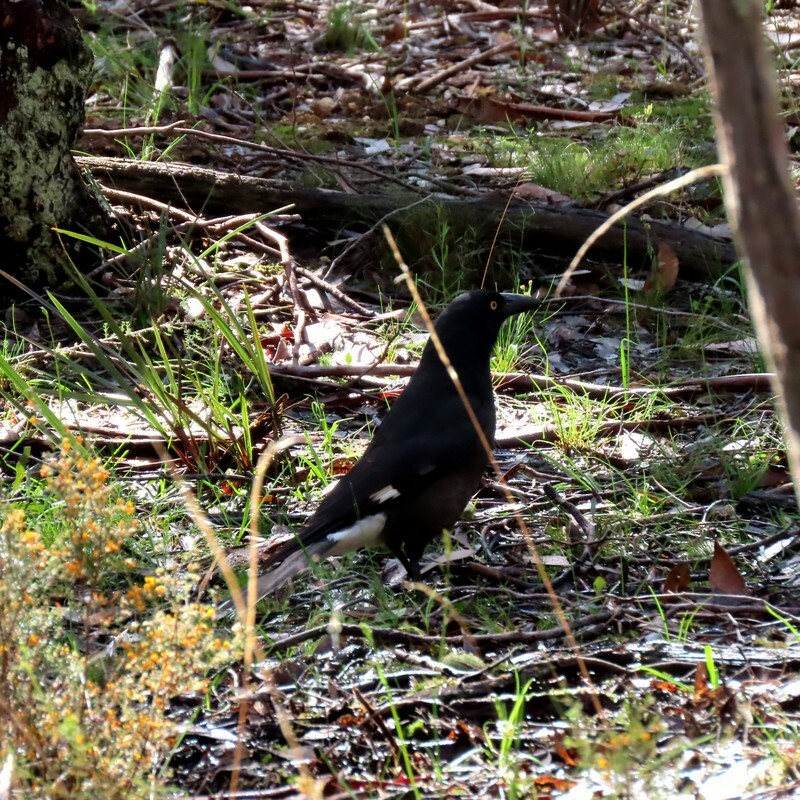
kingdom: Animalia
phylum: Chordata
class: Aves
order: Passeriformes
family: Cracticidae
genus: Strepera
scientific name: Strepera graculina
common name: Pied currawong
